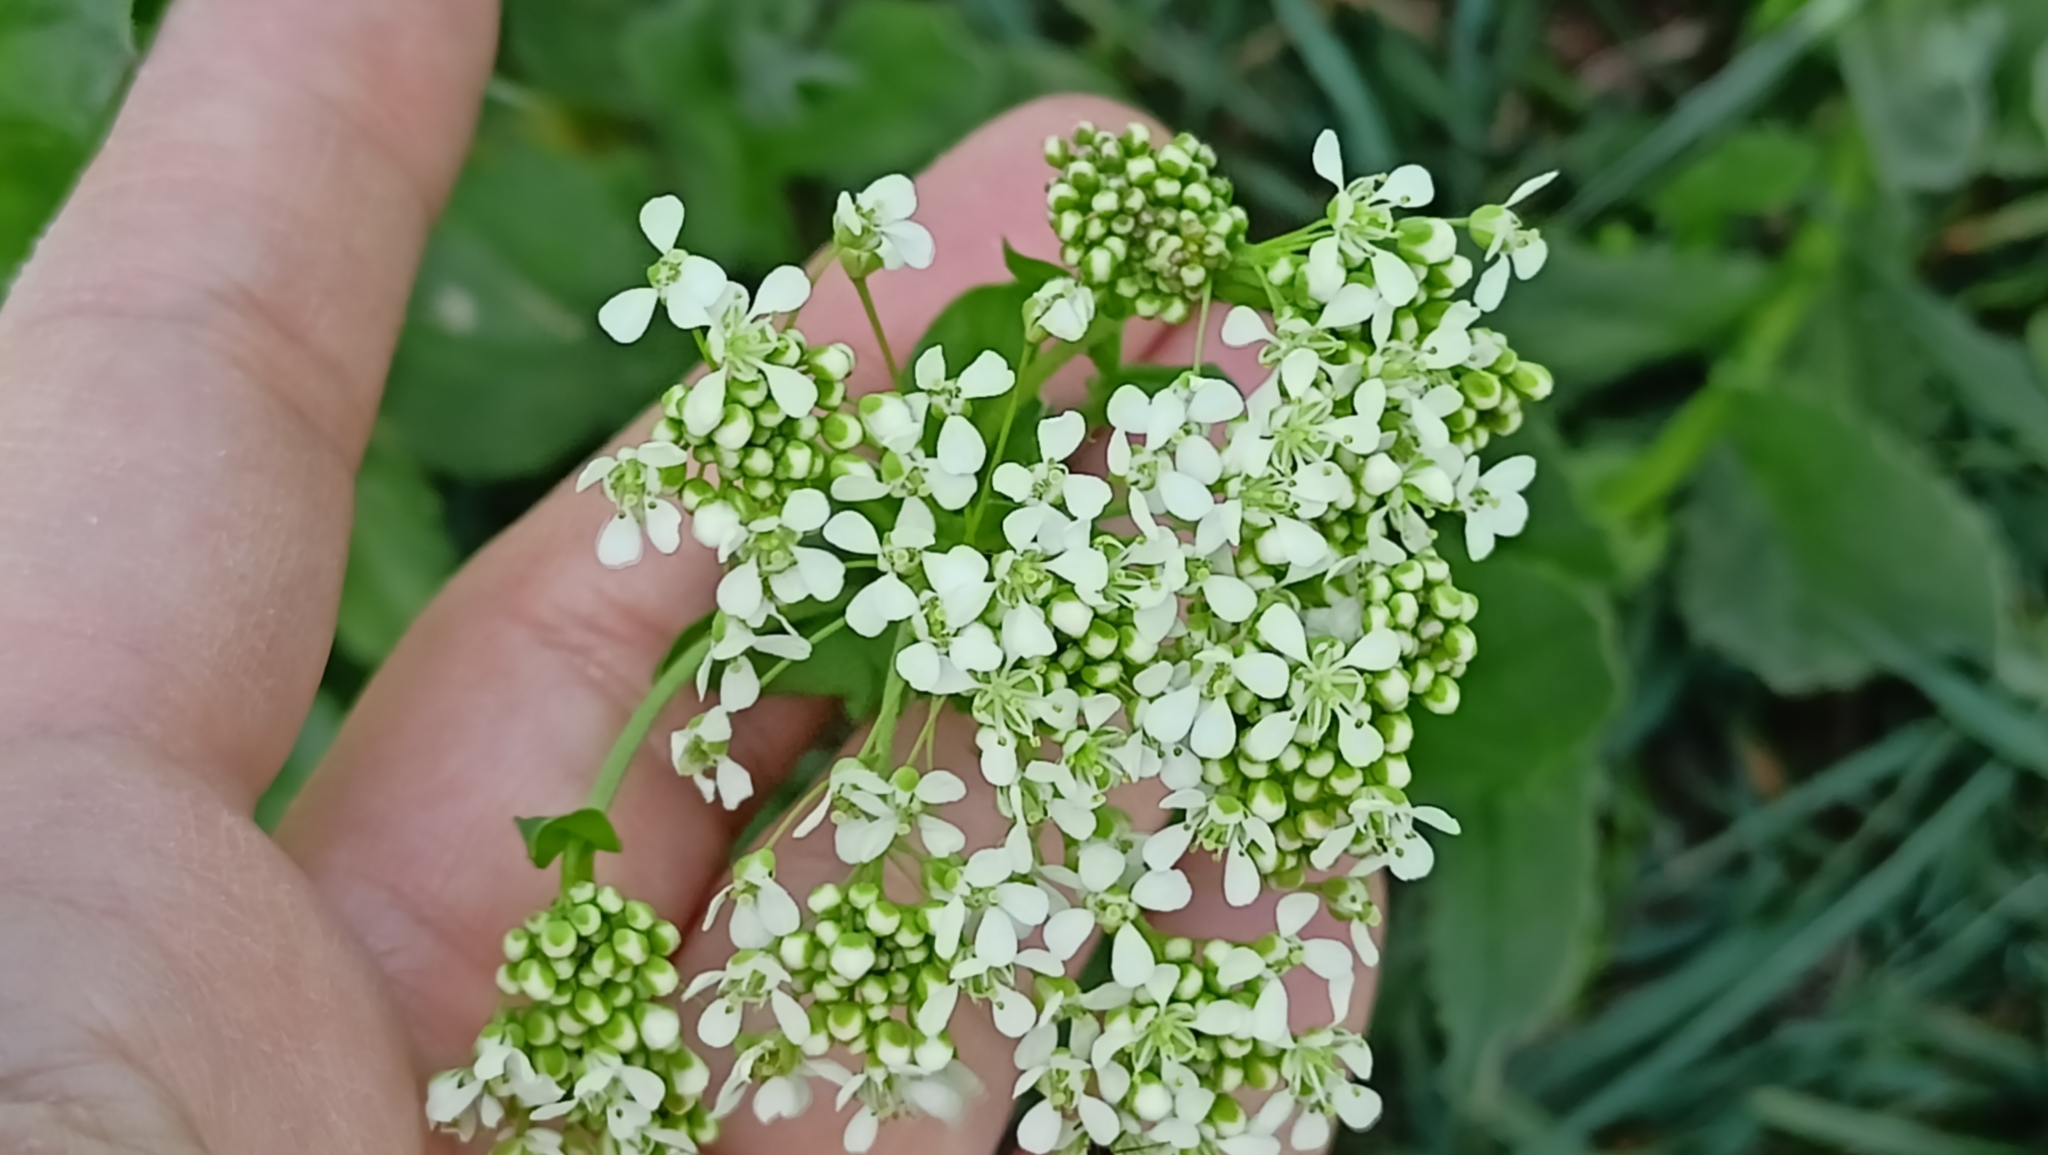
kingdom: Plantae
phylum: Tracheophyta
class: Magnoliopsida
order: Brassicales
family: Brassicaceae
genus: Lepidium
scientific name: Lepidium draba
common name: Hoary cress
